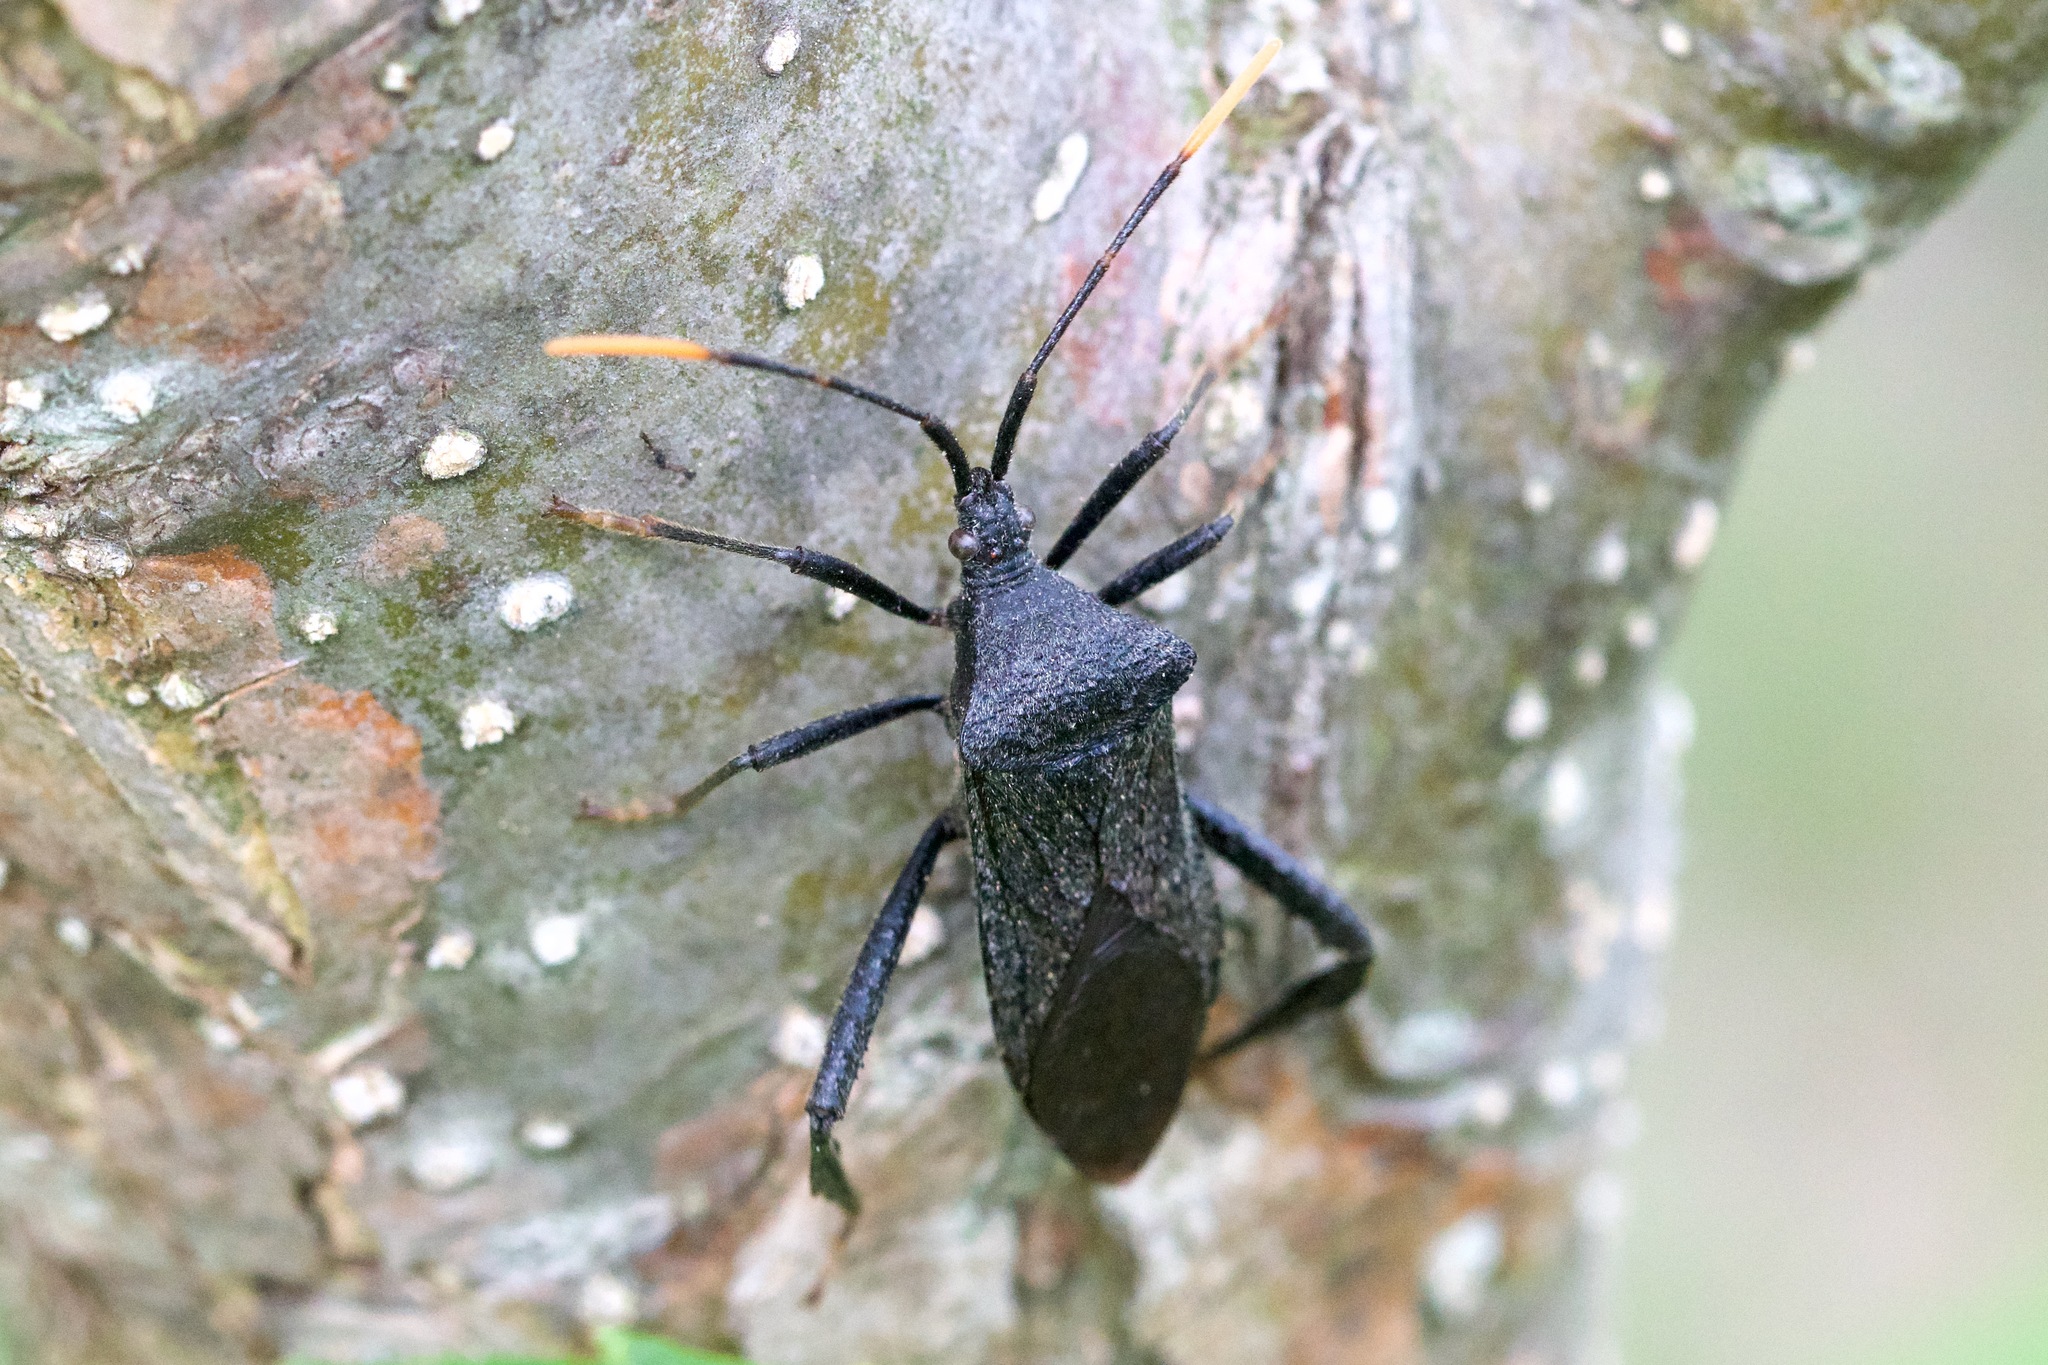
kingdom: Animalia
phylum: Arthropoda
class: Insecta
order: Hemiptera
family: Coreidae
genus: Acanthocephala
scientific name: Acanthocephala terminalis
